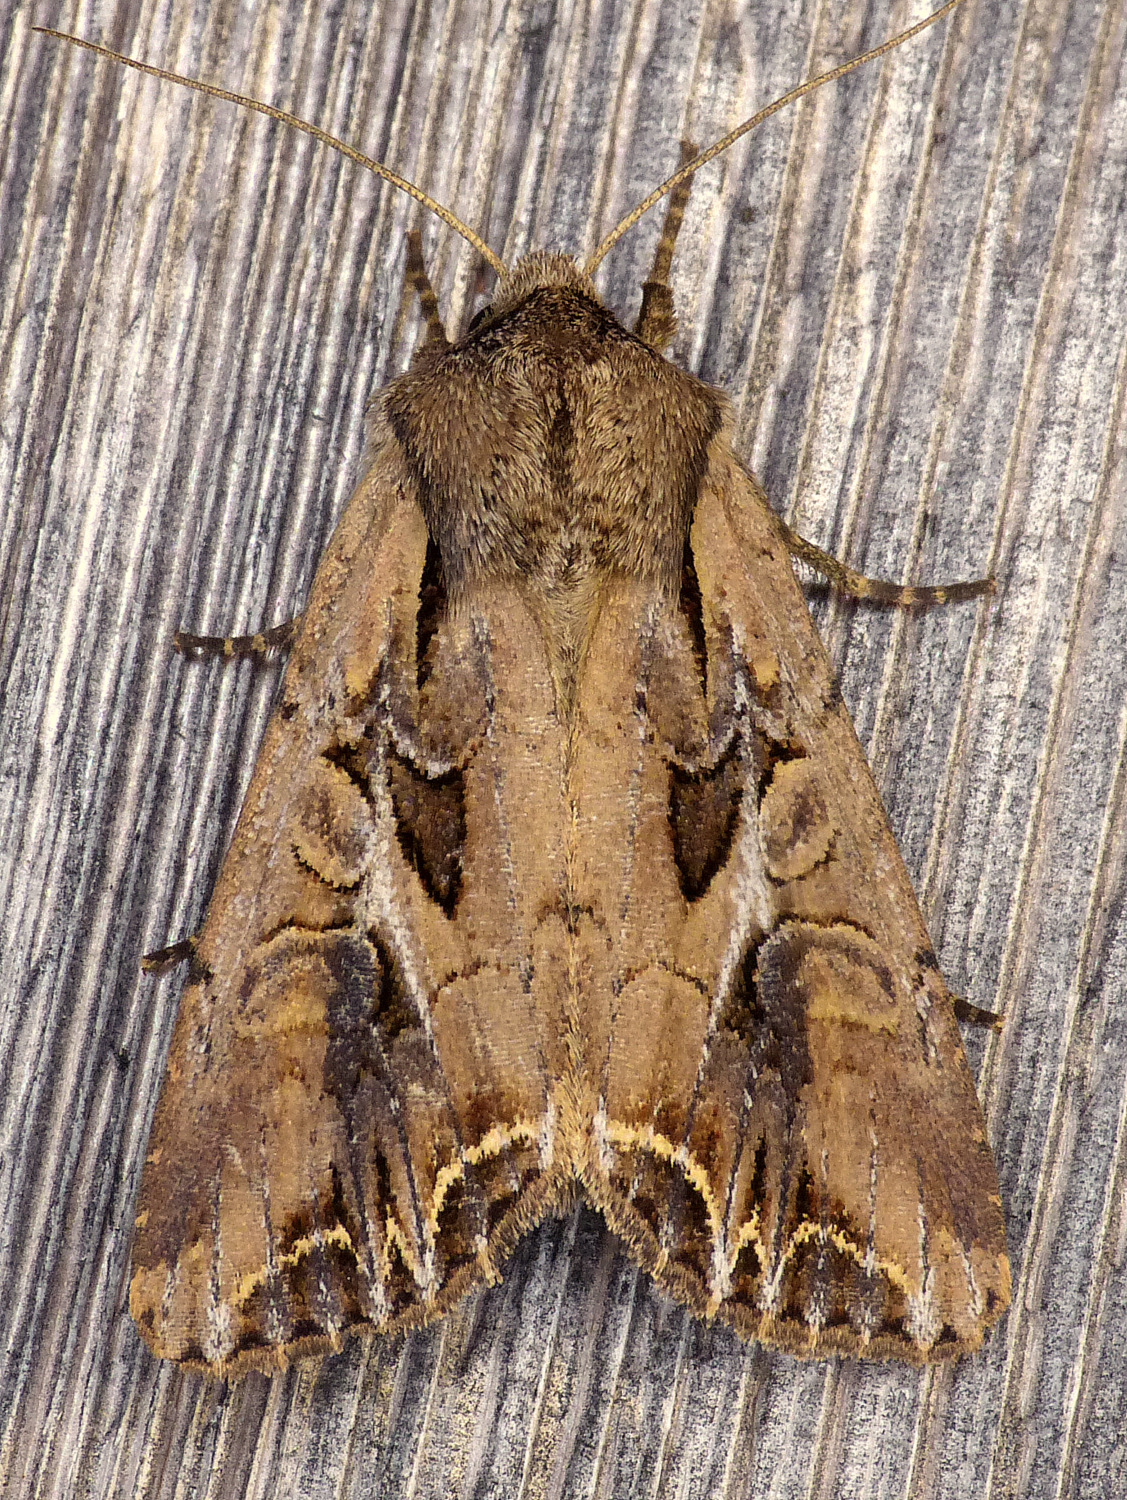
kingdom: Animalia
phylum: Arthropoda
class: Insecta
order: Lepidoptera
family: Noctuidae
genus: Lacanobia
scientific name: Lacanobia atlantica
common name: Atlantic arches moth
